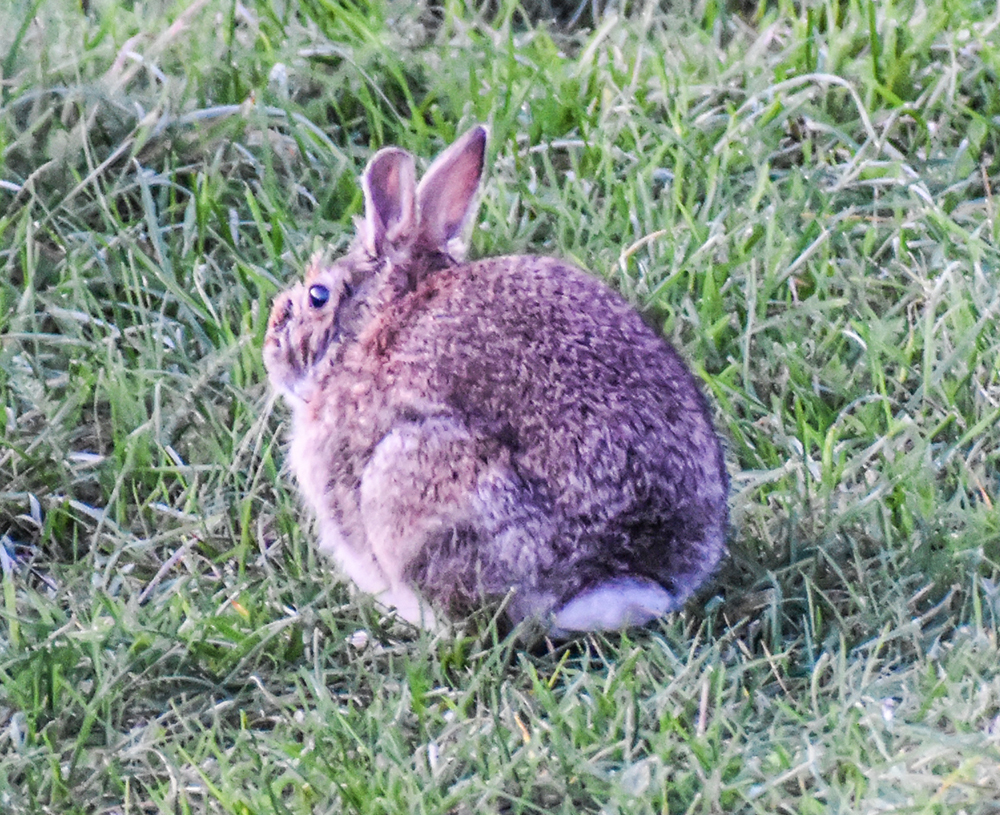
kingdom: Animalia
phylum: Chordata
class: Mammalia
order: Lagomorpha
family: Leporidae
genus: Oryctolagus
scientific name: Oryctolagus cuniculus
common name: European rabbit
